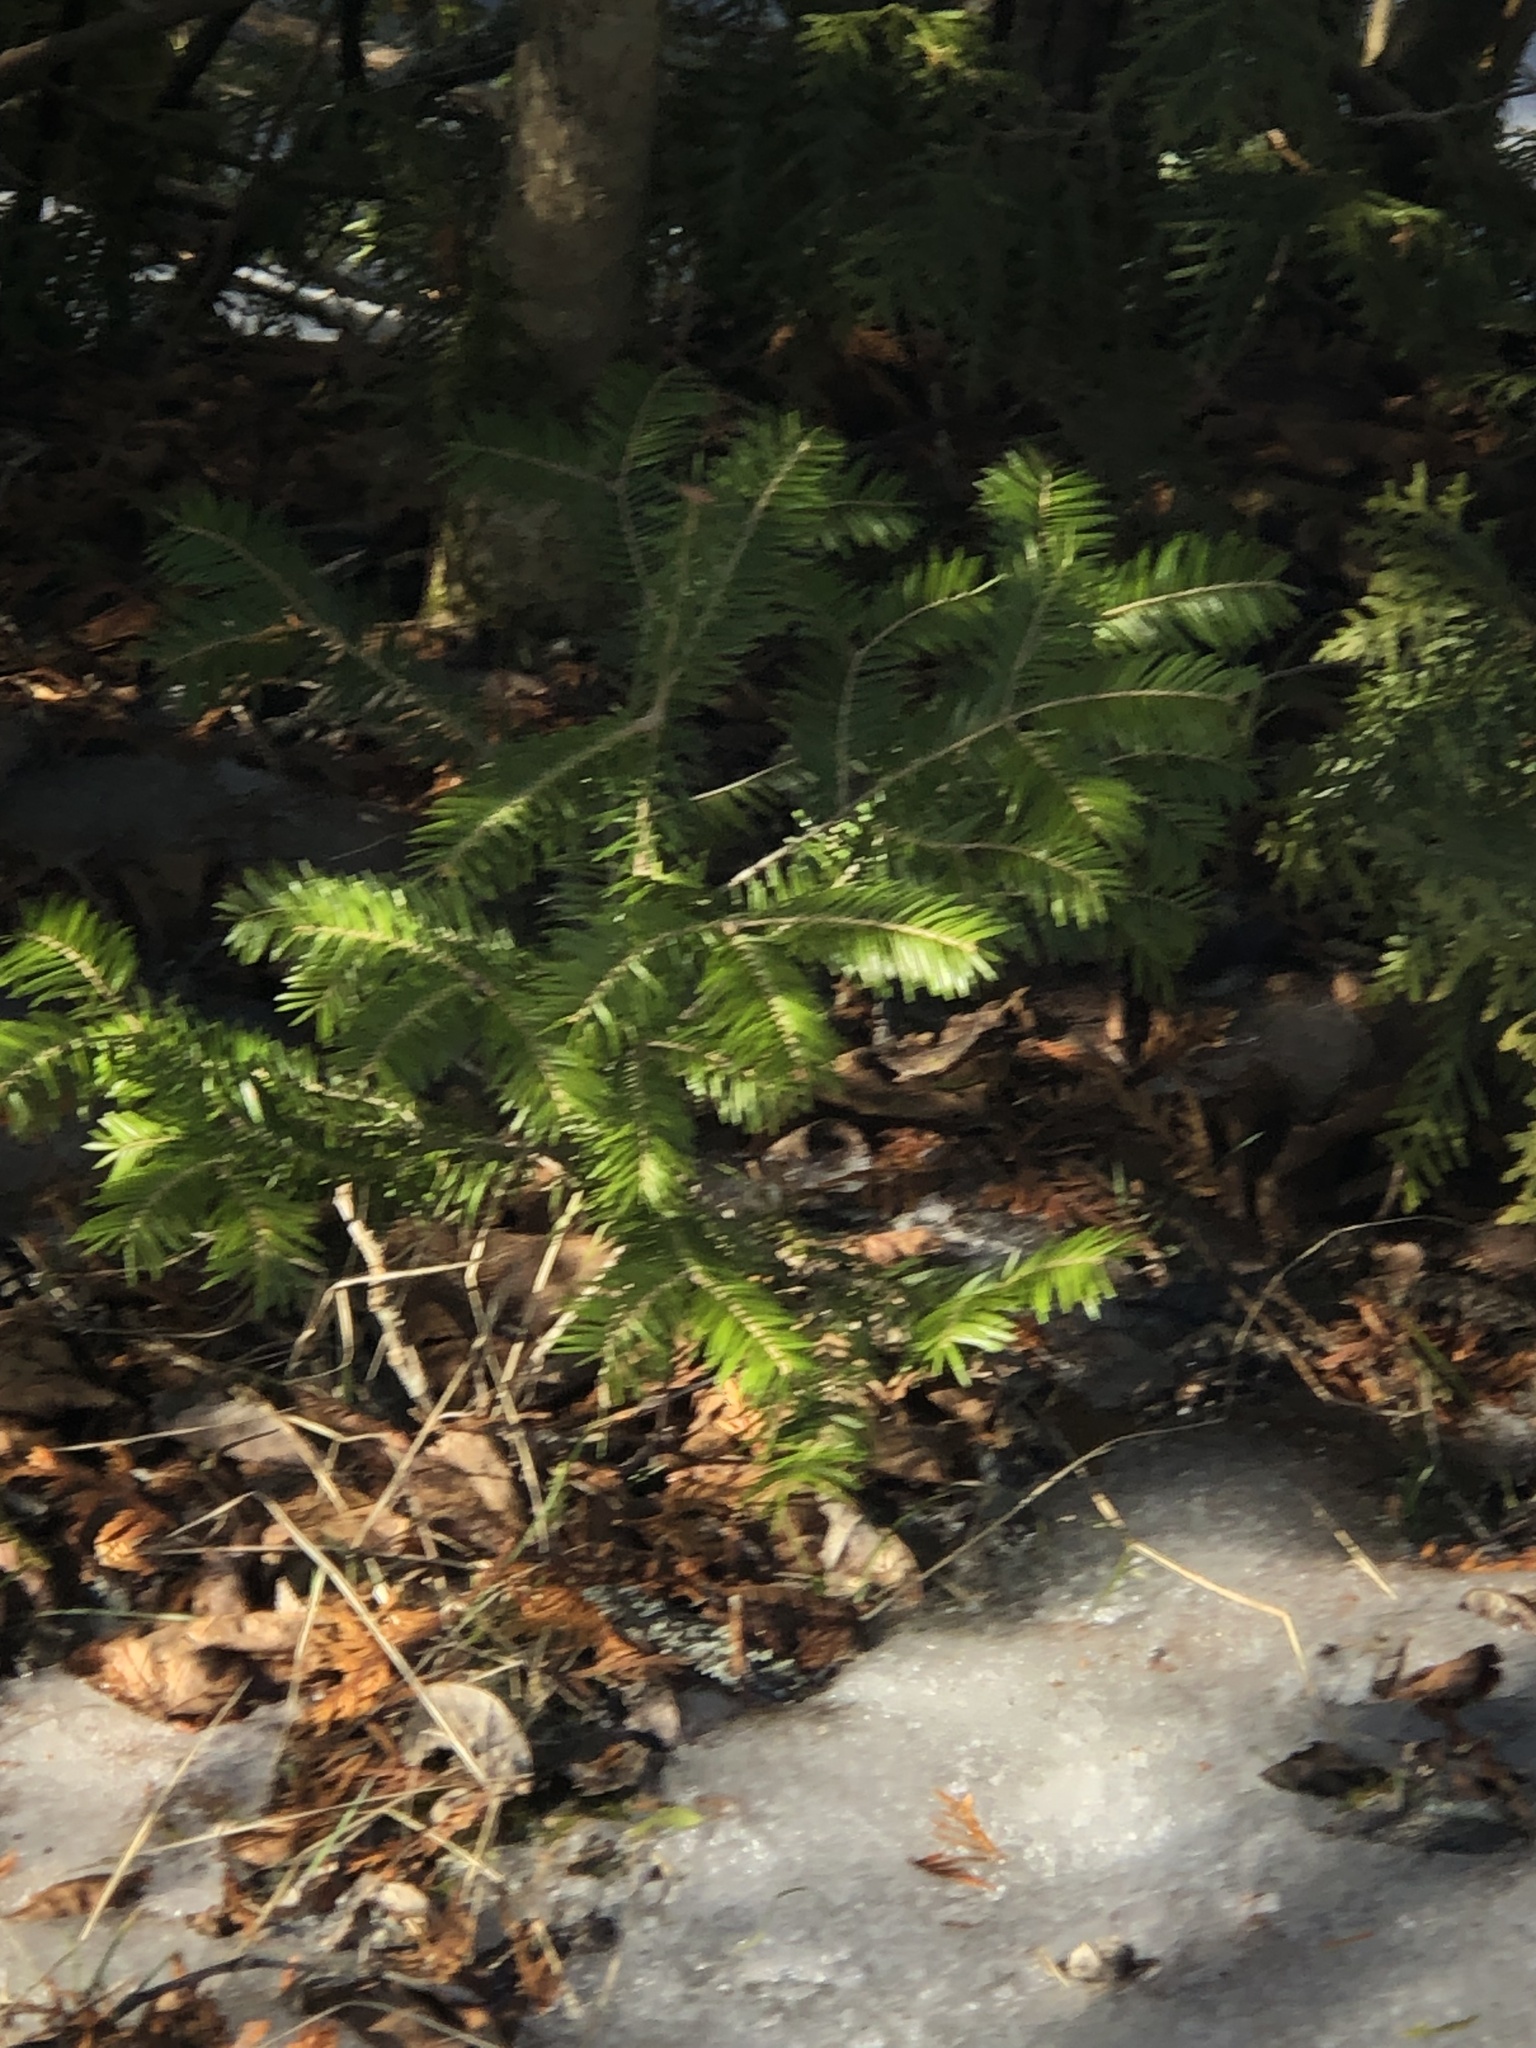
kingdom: Plantae
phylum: Tracheophyta
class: Pinopsida
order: Pinales
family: Pinaceae
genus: Abies
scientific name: Abies balsamea
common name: Balsam fir
